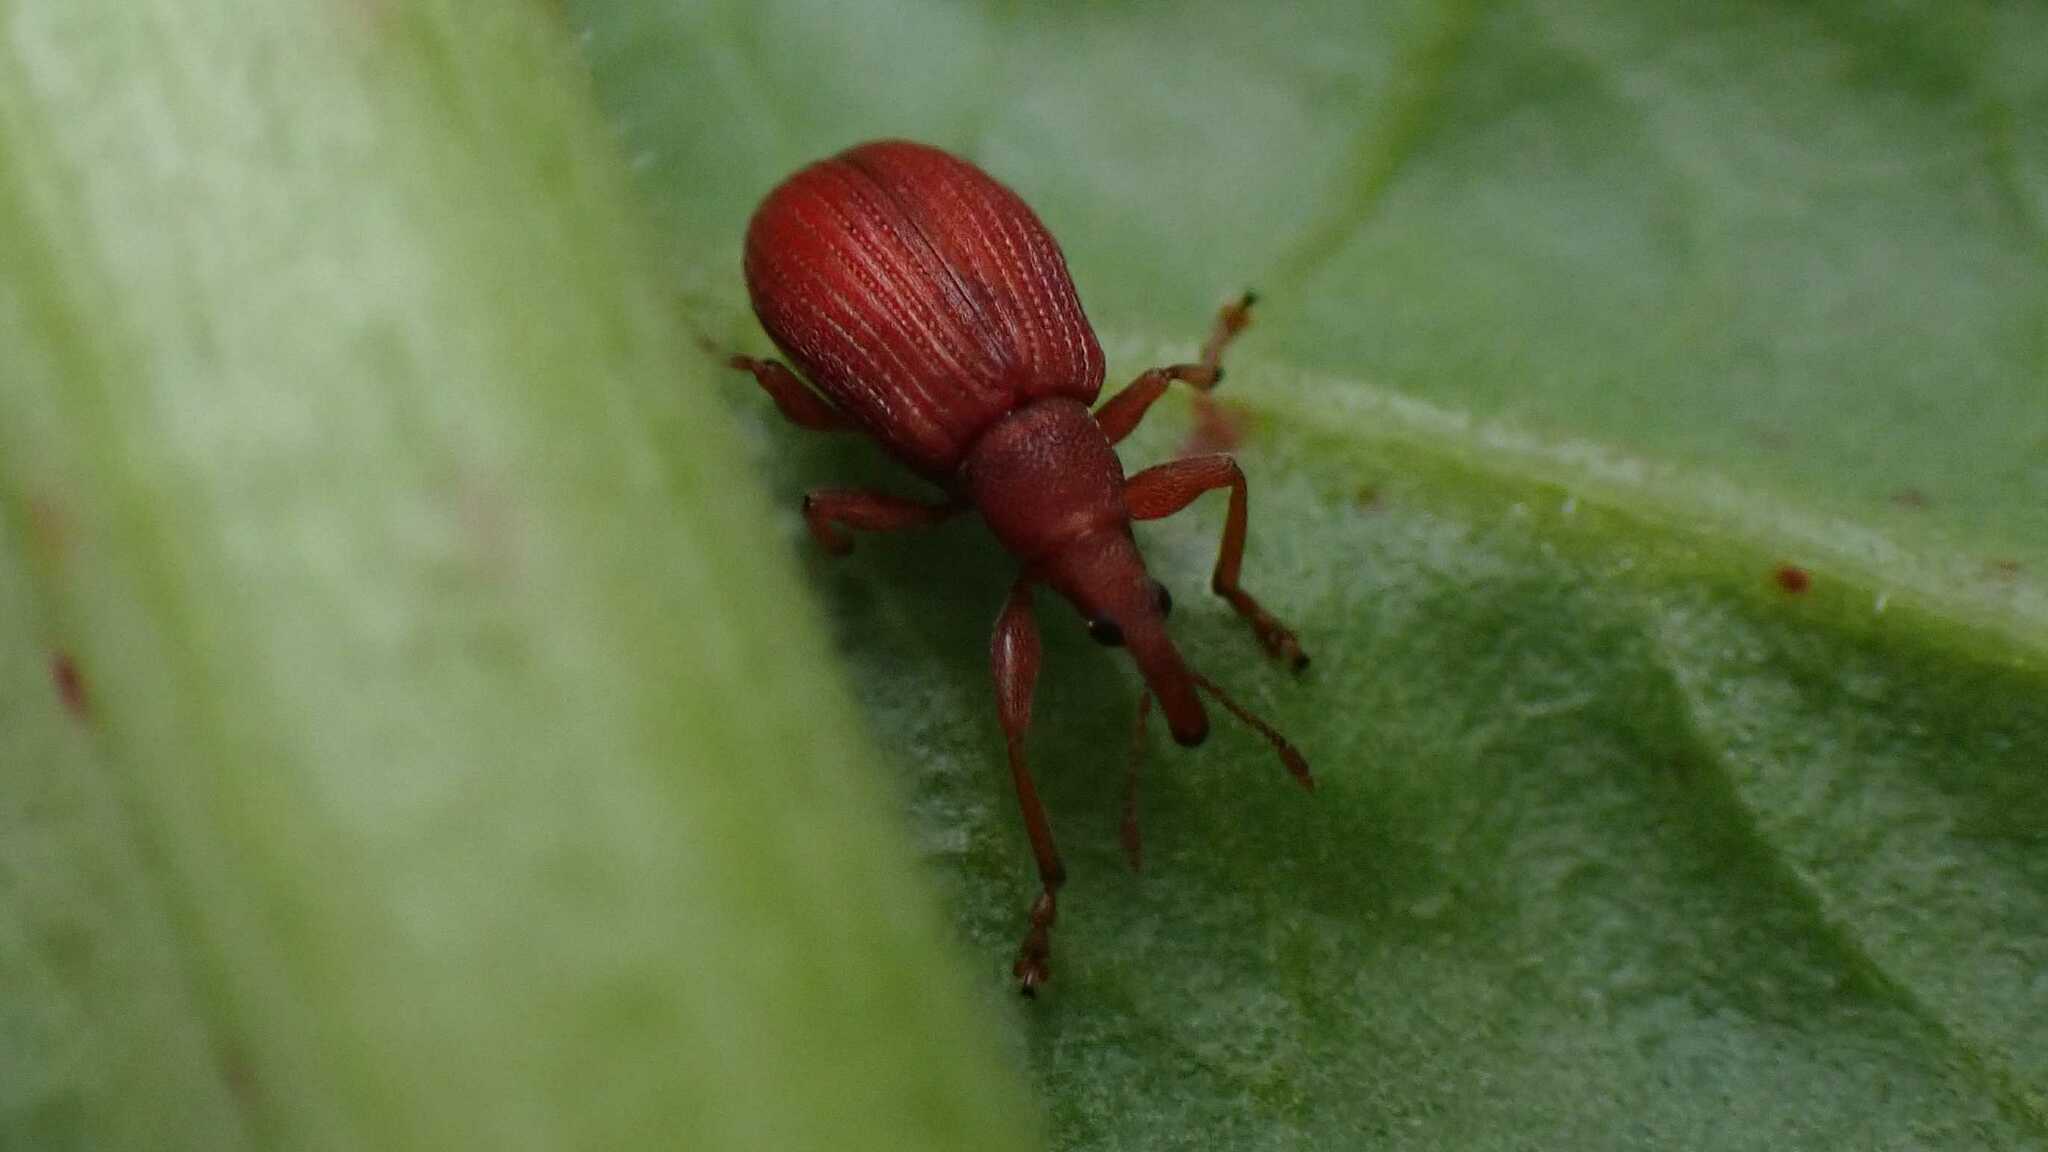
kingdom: Animalia
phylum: Arthropoda
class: Insecta
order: Coleoptera
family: Apionidae
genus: Apion
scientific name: Apion frumentarium
